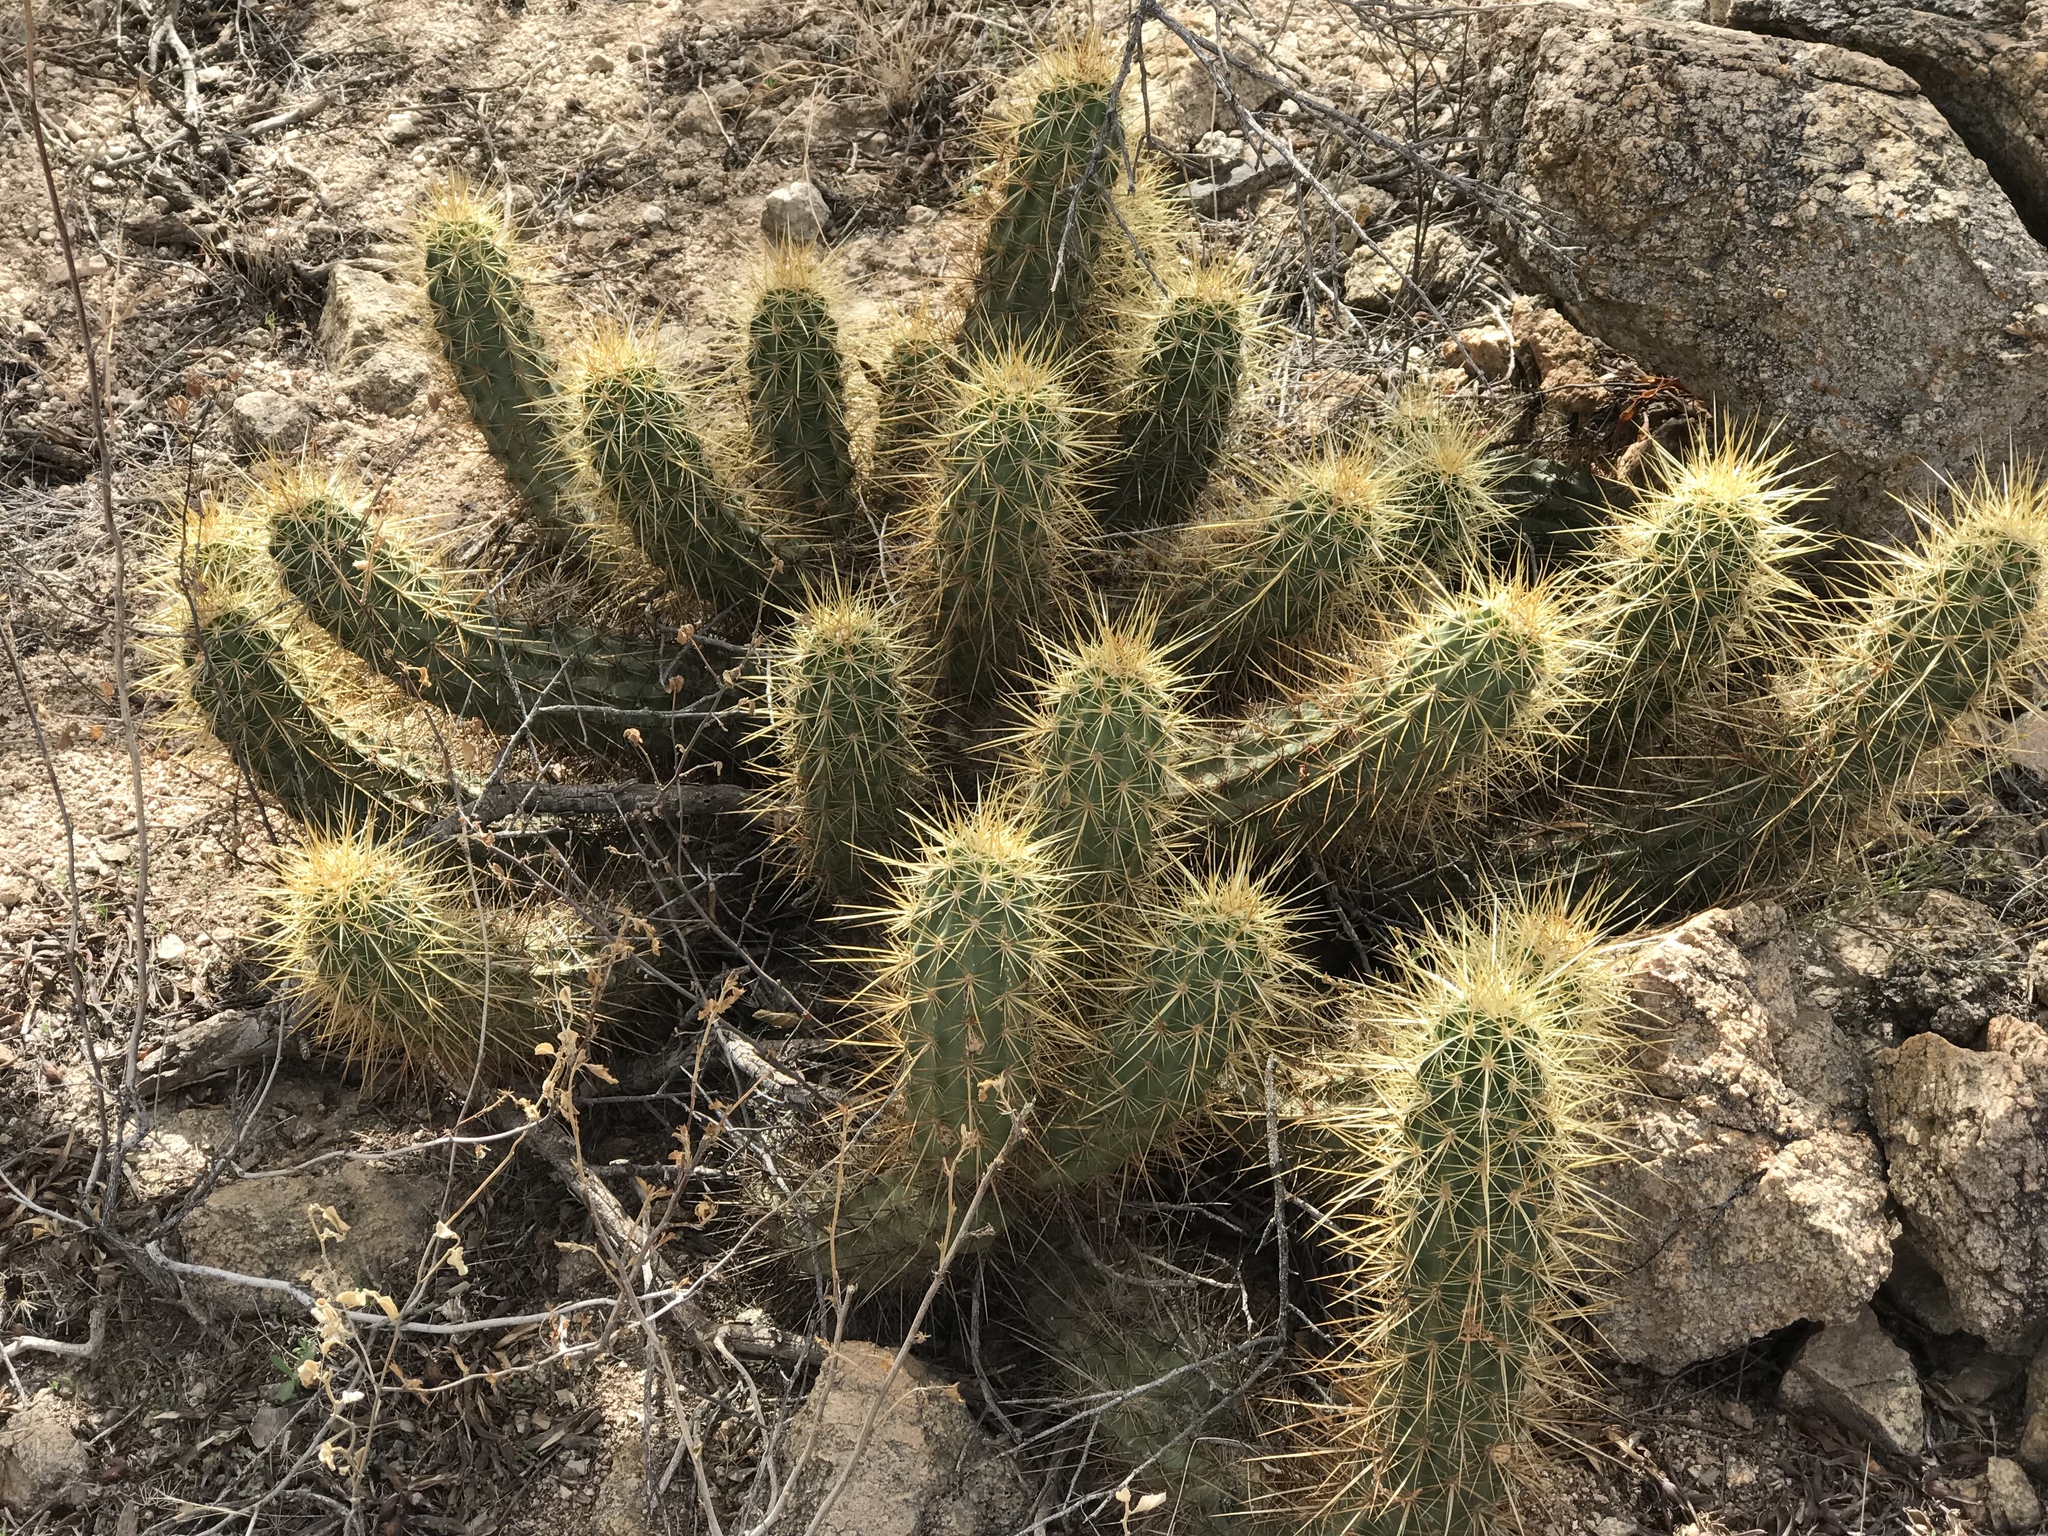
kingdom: Plantae
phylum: Tracheophyta
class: Magnoliopsida
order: Caryophyllales
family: Cactaceae
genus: Echinocereus
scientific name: Echinocereus nicholii
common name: Nichol's hedgehog cactus
